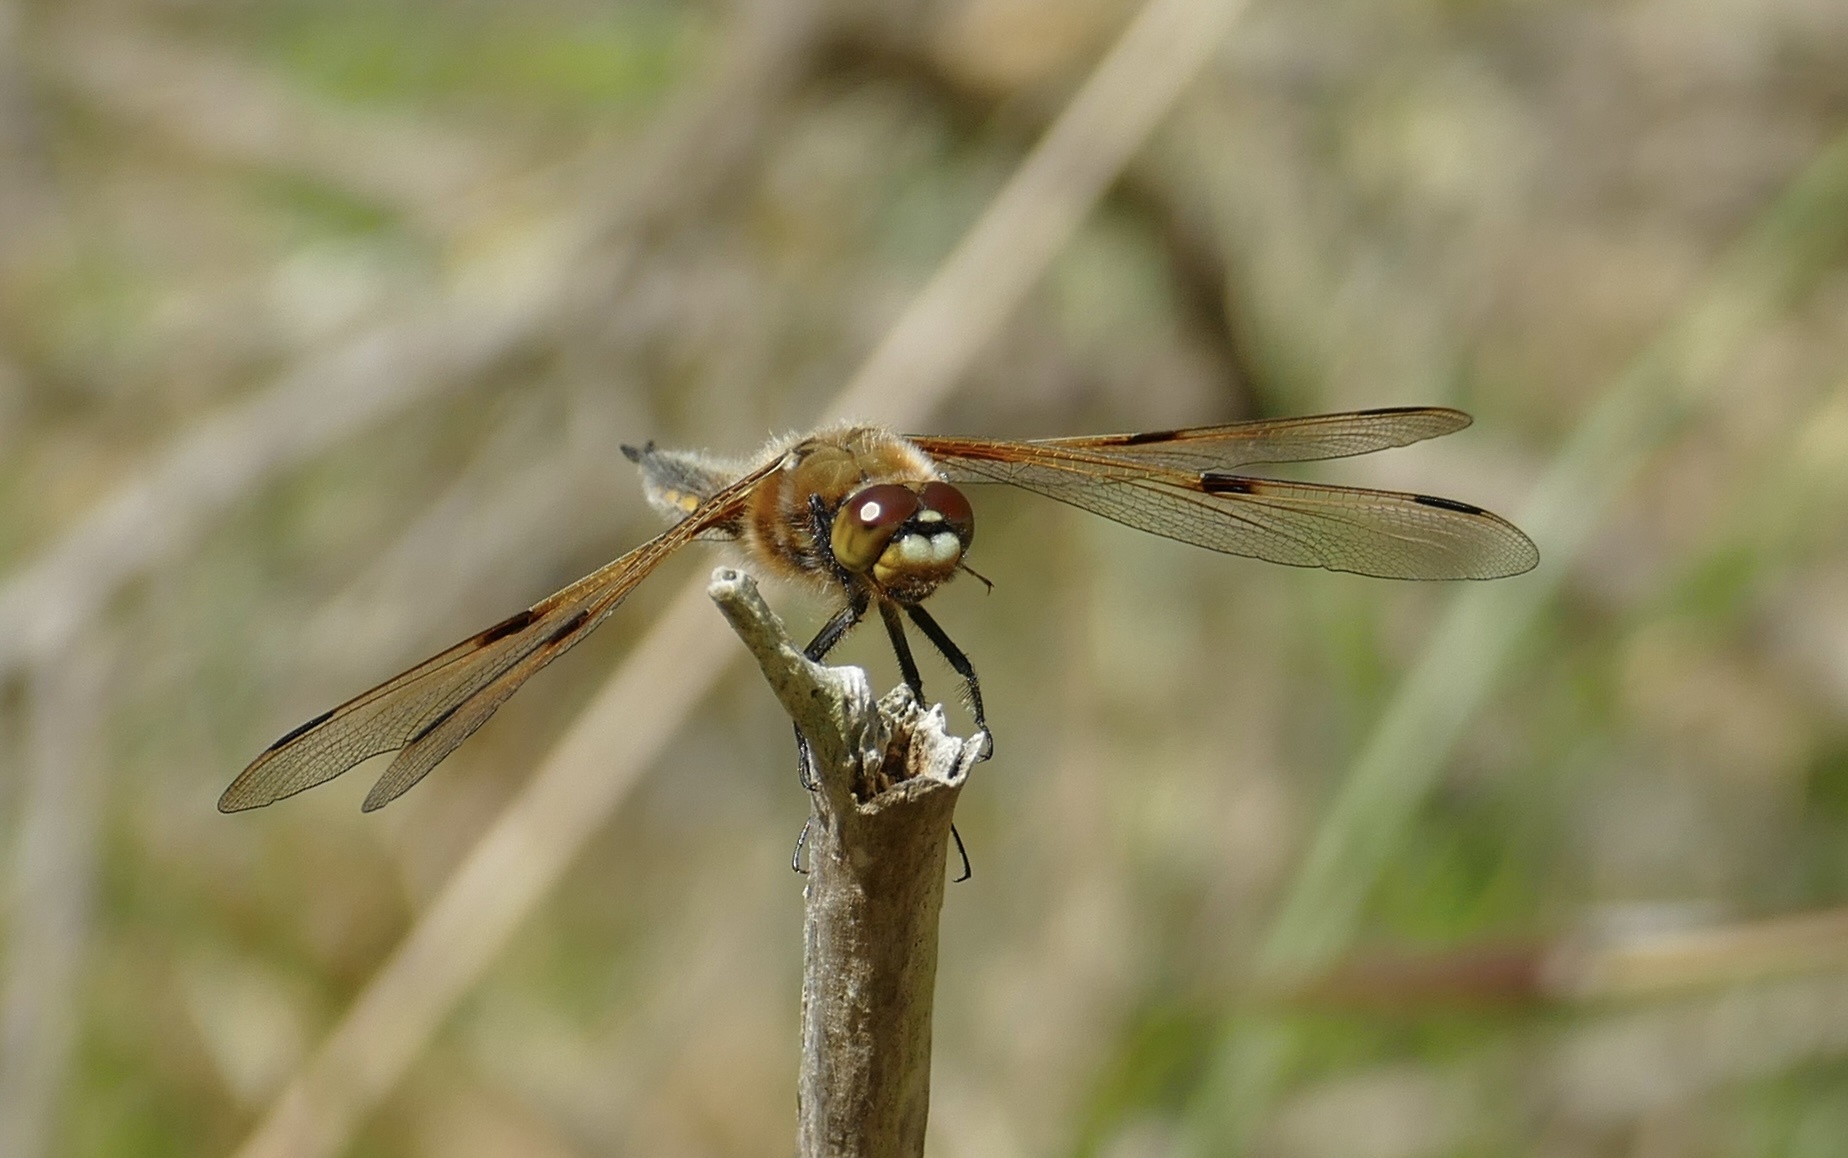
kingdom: Animalia
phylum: Arthropoda
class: Insecta
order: Odonata
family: Libellulidae
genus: Libellula
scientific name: Libellula quadrimaculata
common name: Four-spotted chaser
